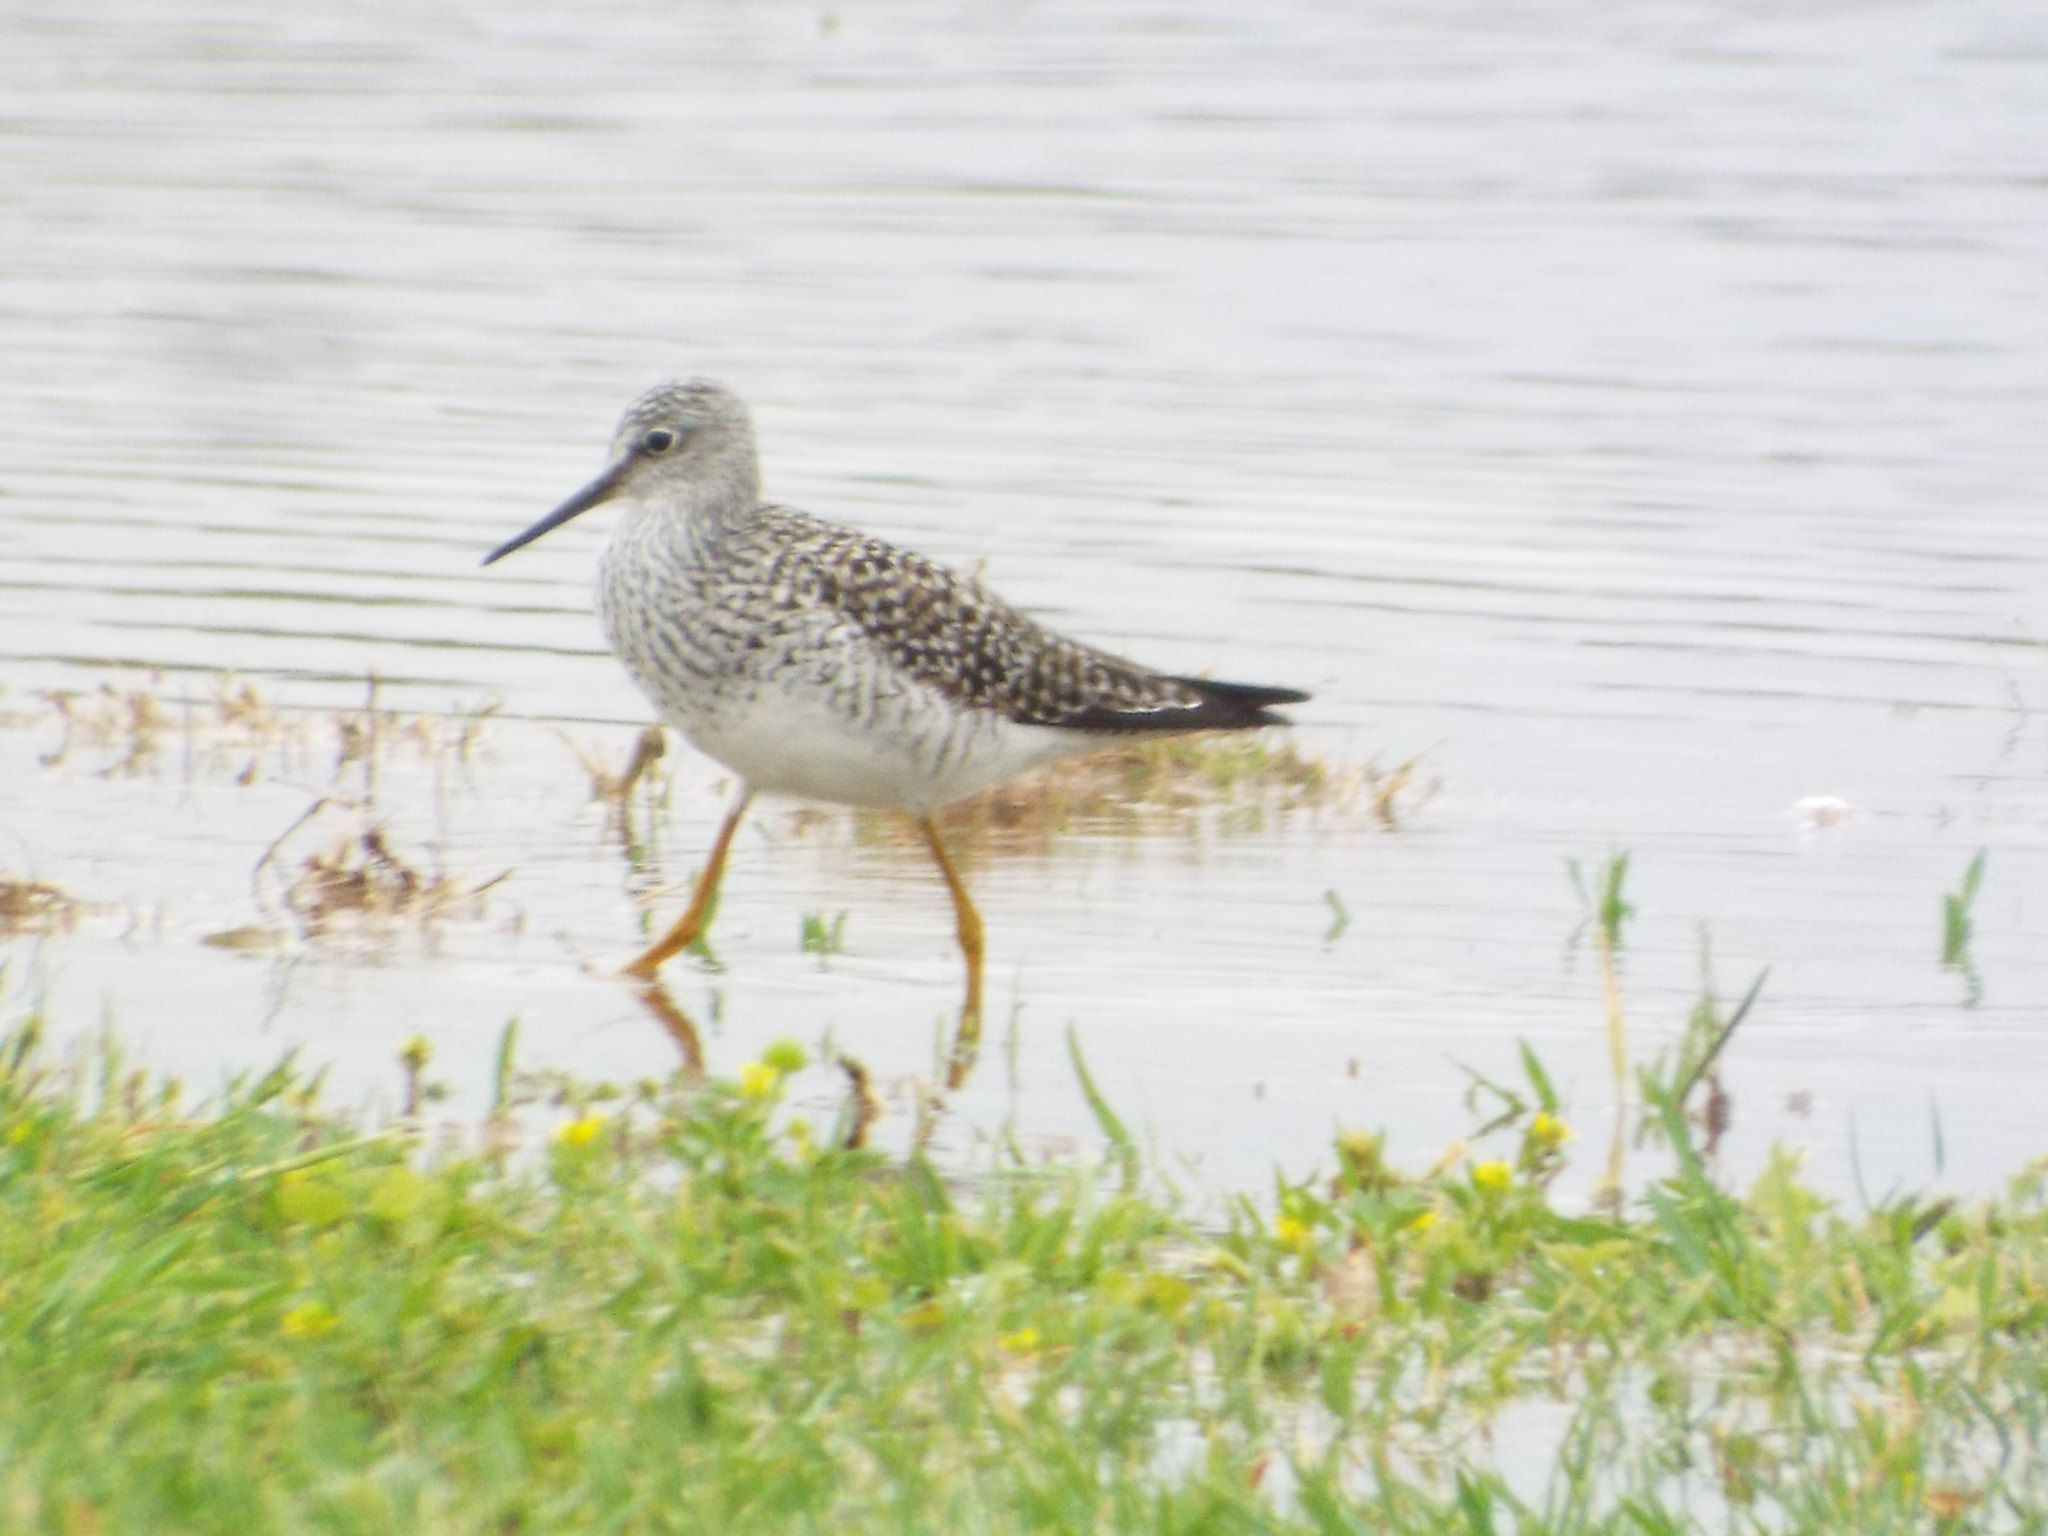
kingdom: Animalia
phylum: Chordata
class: Aves
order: Charadriiformes
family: Scolopacidae
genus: Tringa
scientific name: Tringa melanoleuca
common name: Greater yellowlegs
